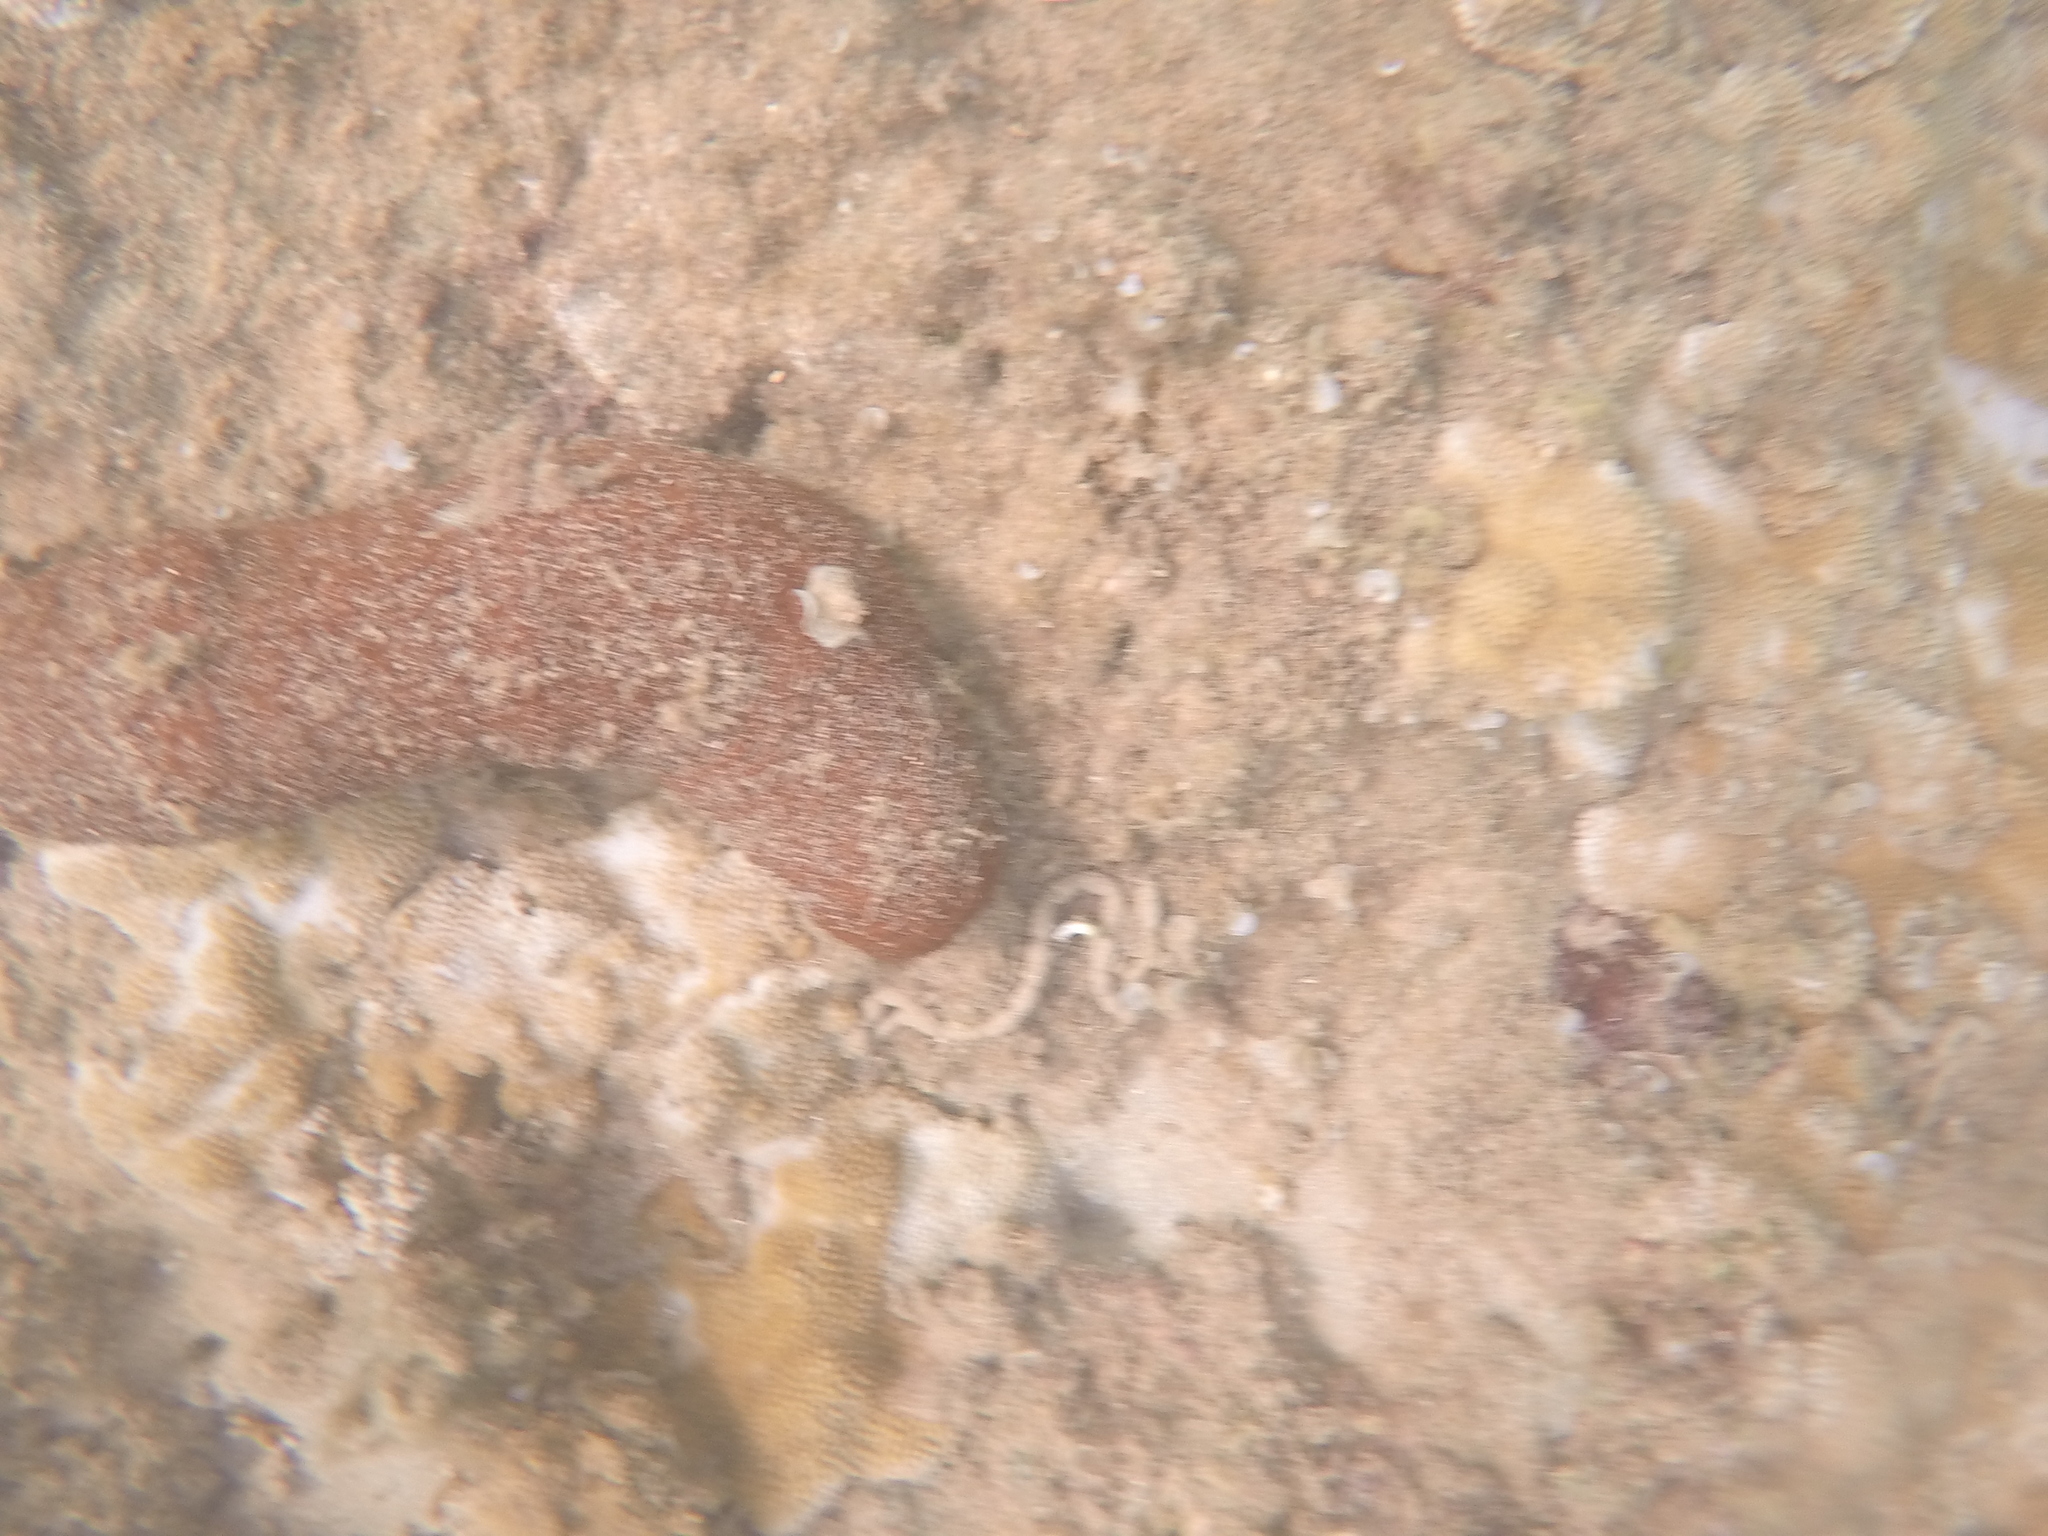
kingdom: Animalia
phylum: Echinodermata
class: Holothuroidea
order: Holothuriida
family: Holothuriidae
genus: Actinopyga
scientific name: Actinopyga varians
